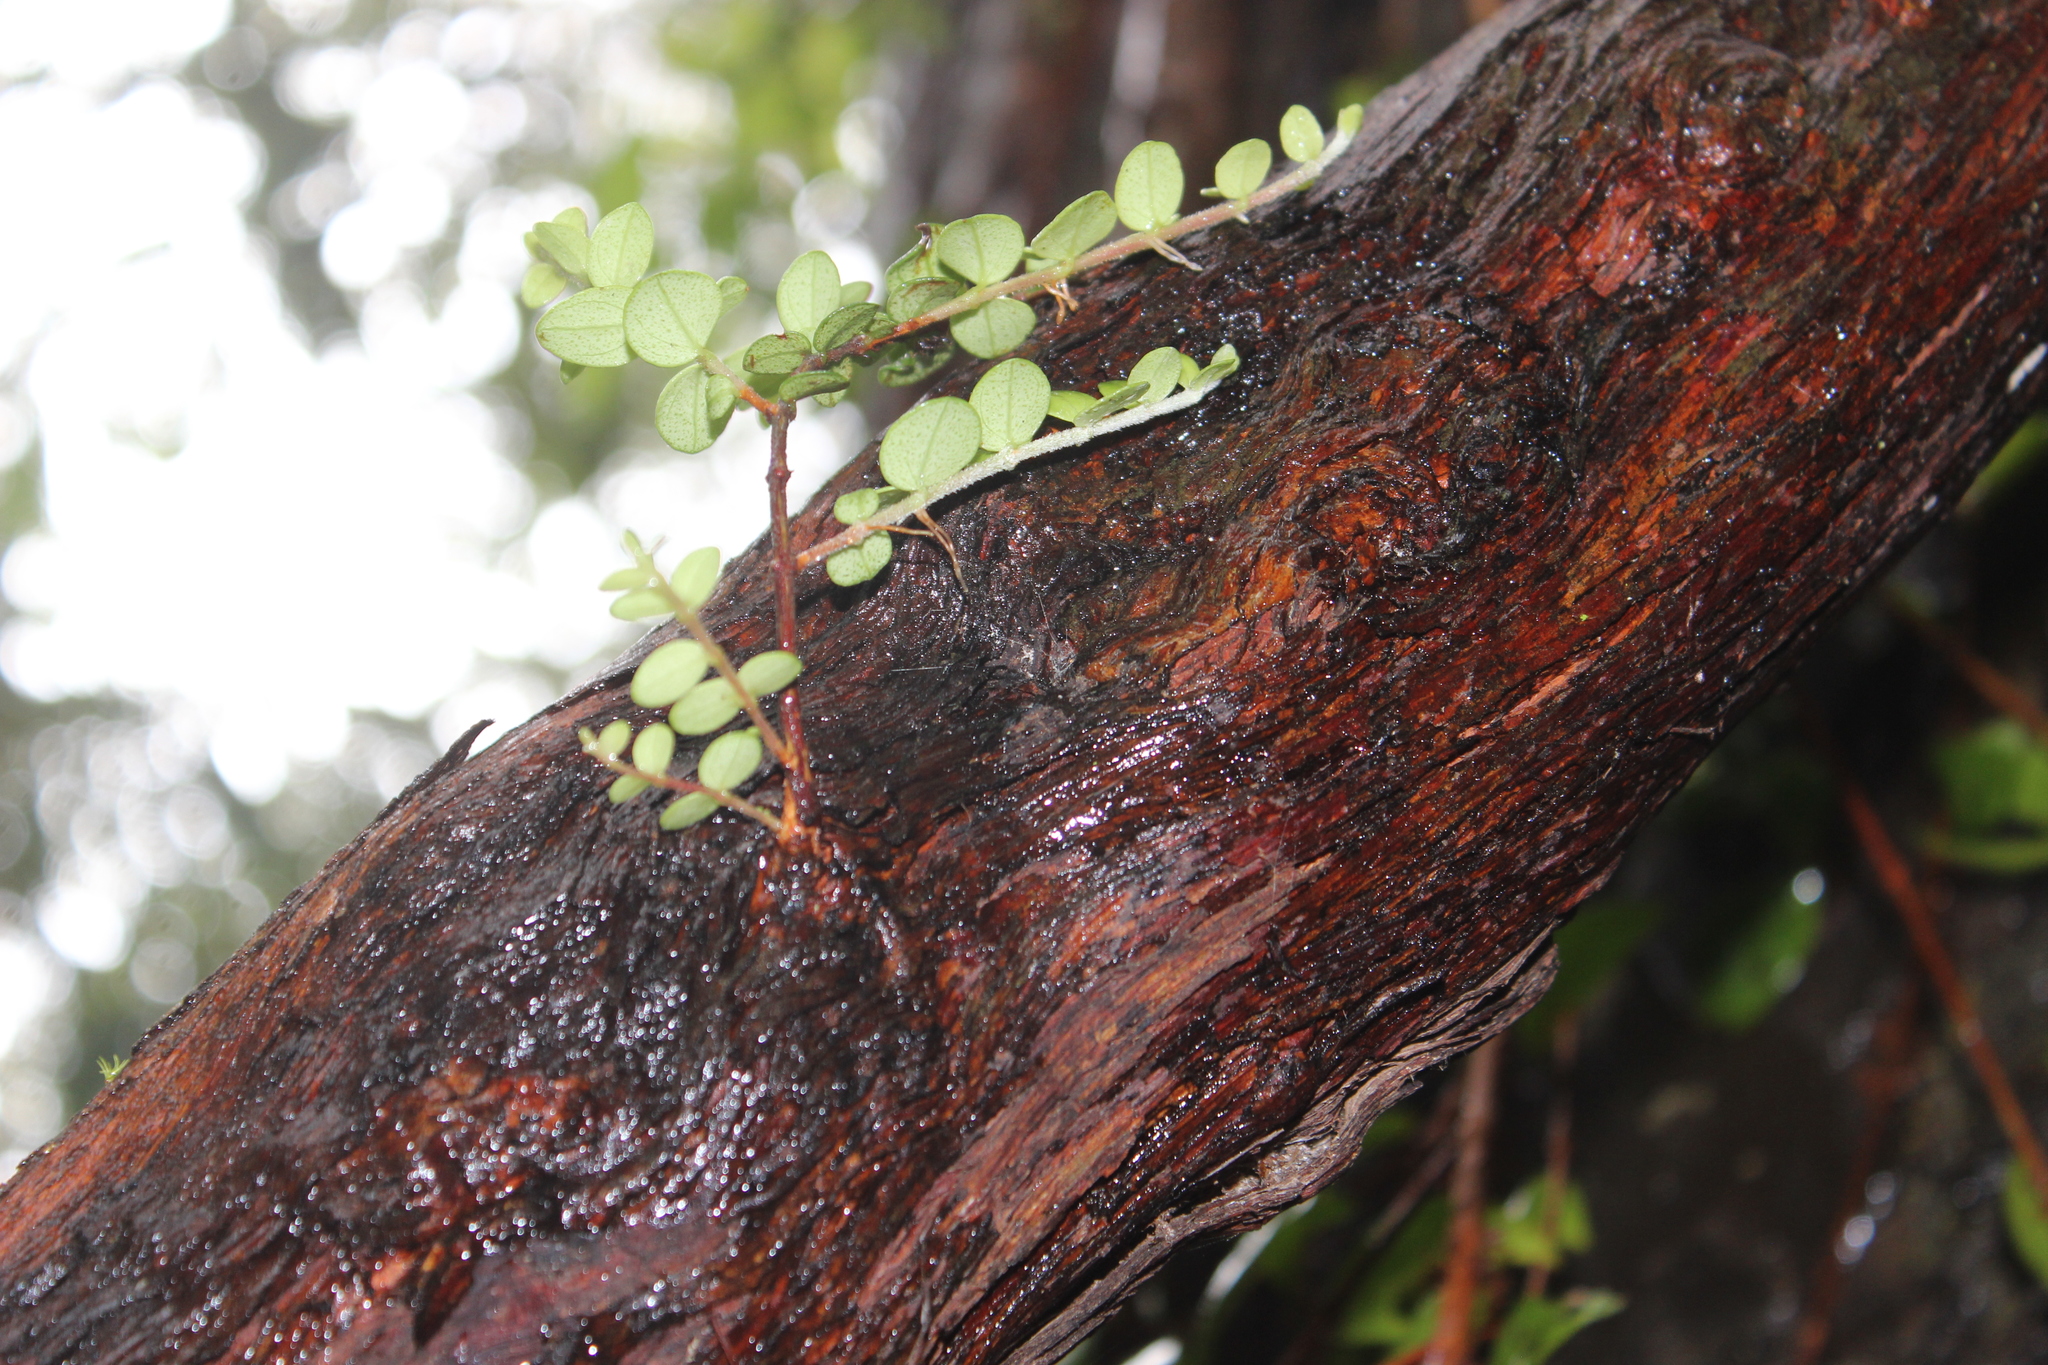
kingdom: Plantae
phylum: Tracheophyta
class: Magnoliopsida
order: Myrtales
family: Myrtaceae
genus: Metrosideros
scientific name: Metrosideros perforata
